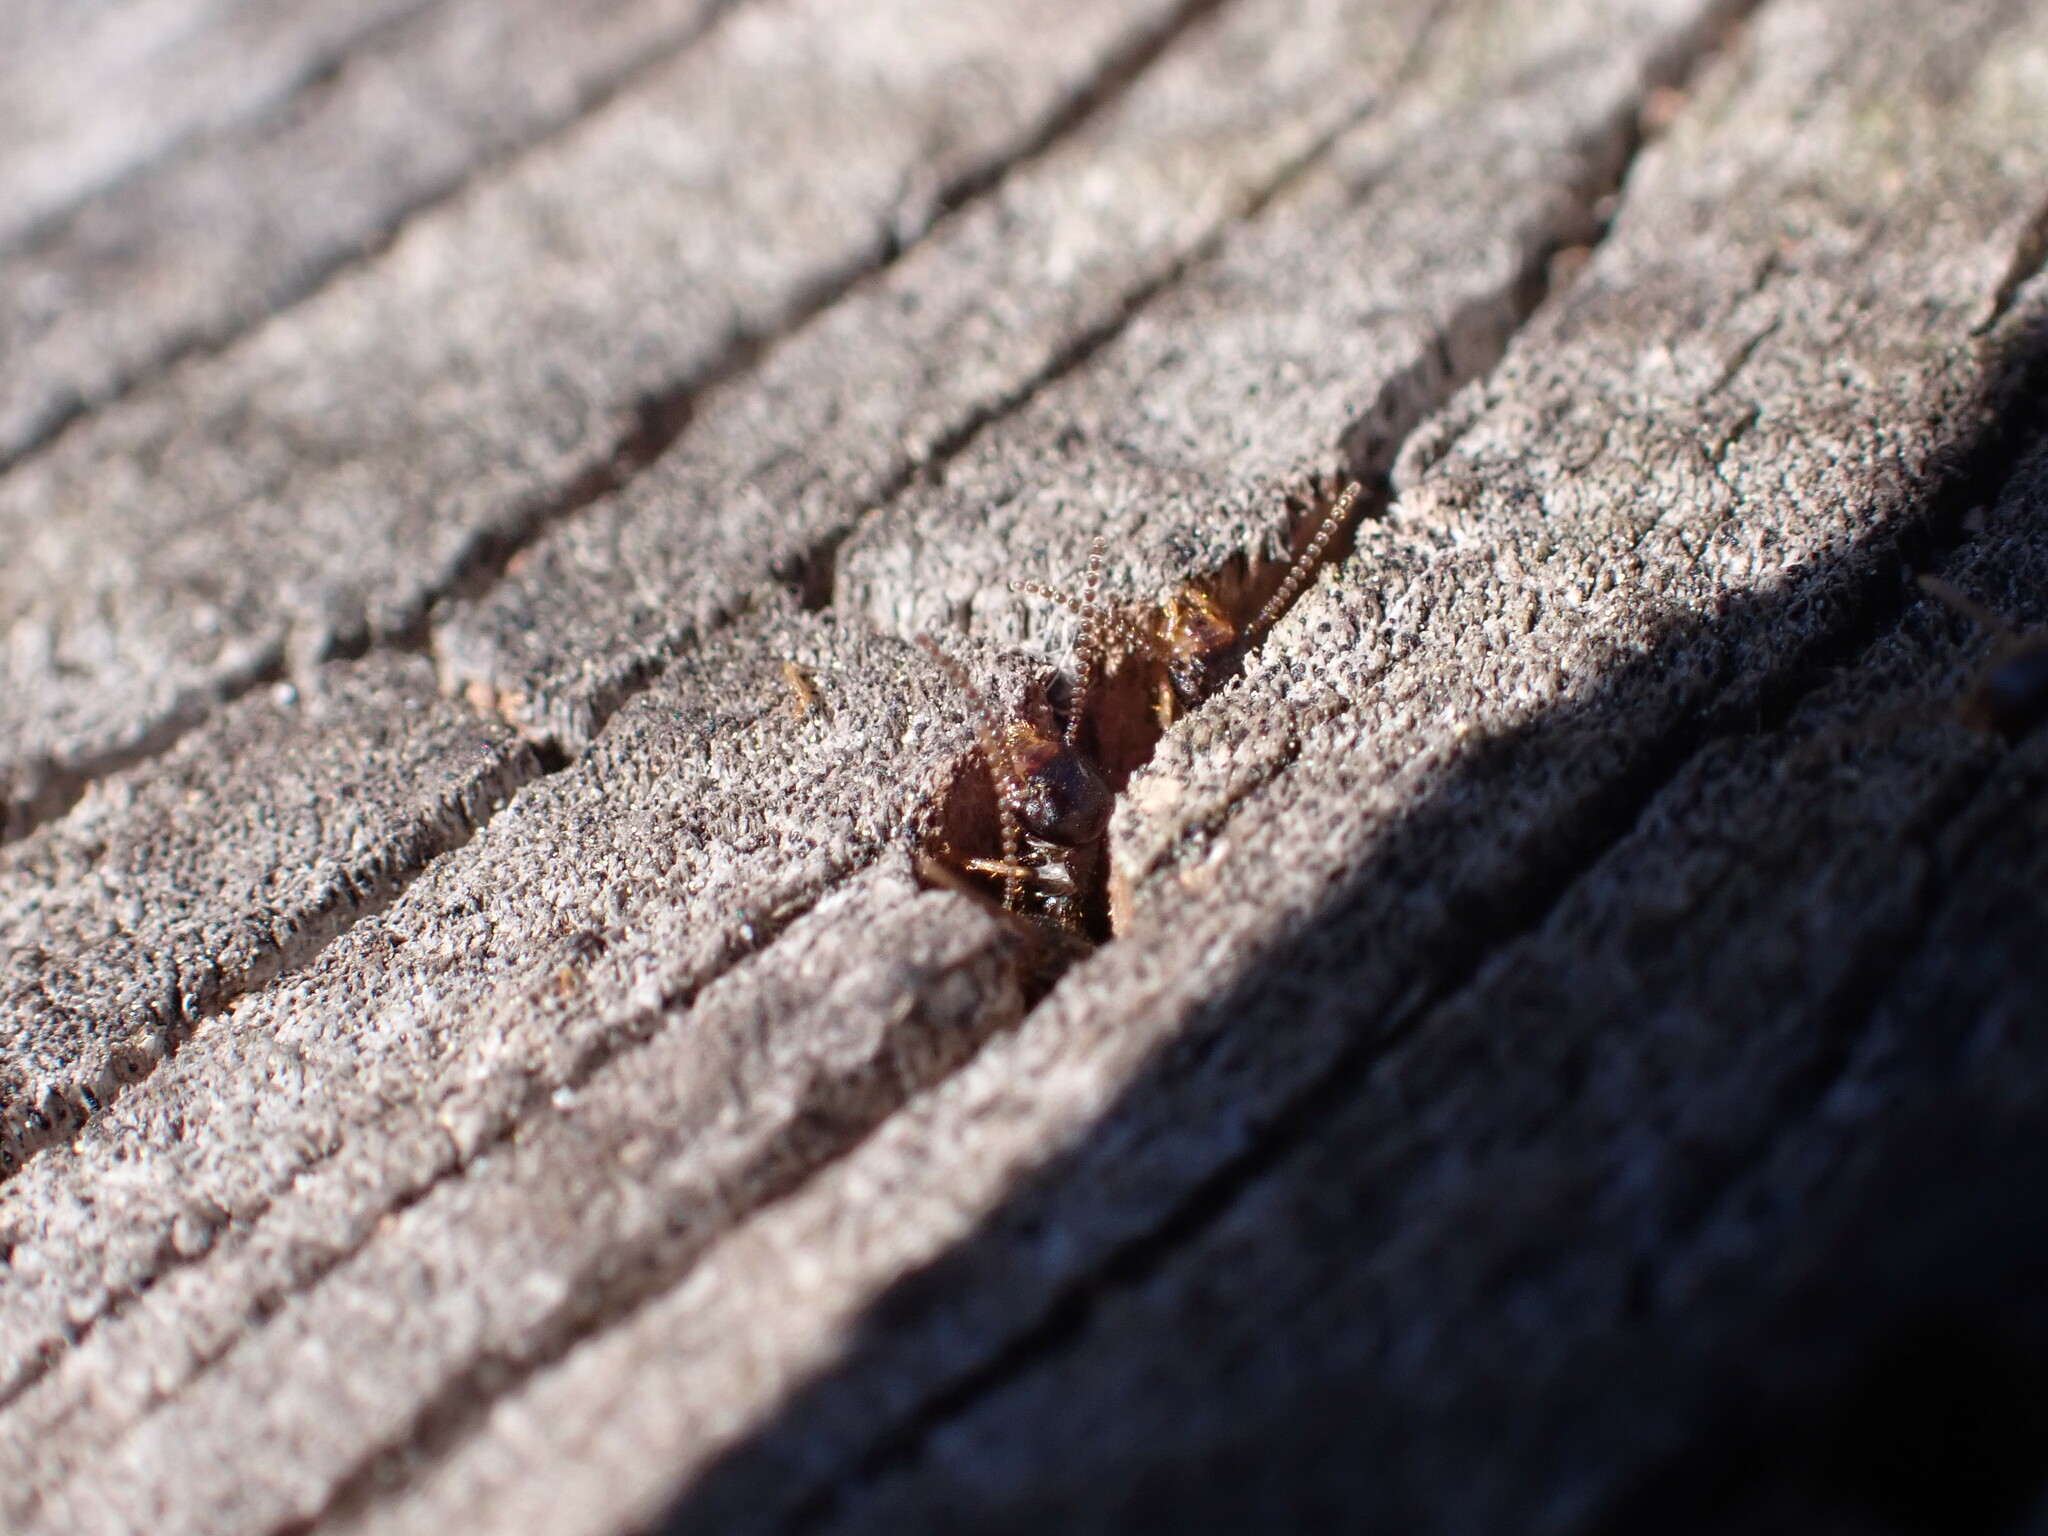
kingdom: Animalia
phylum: Arthropoda
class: Insecta
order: Blattodea
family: Rhinotermitidae
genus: Reticulitermes
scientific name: Reticulitermes flavipes
